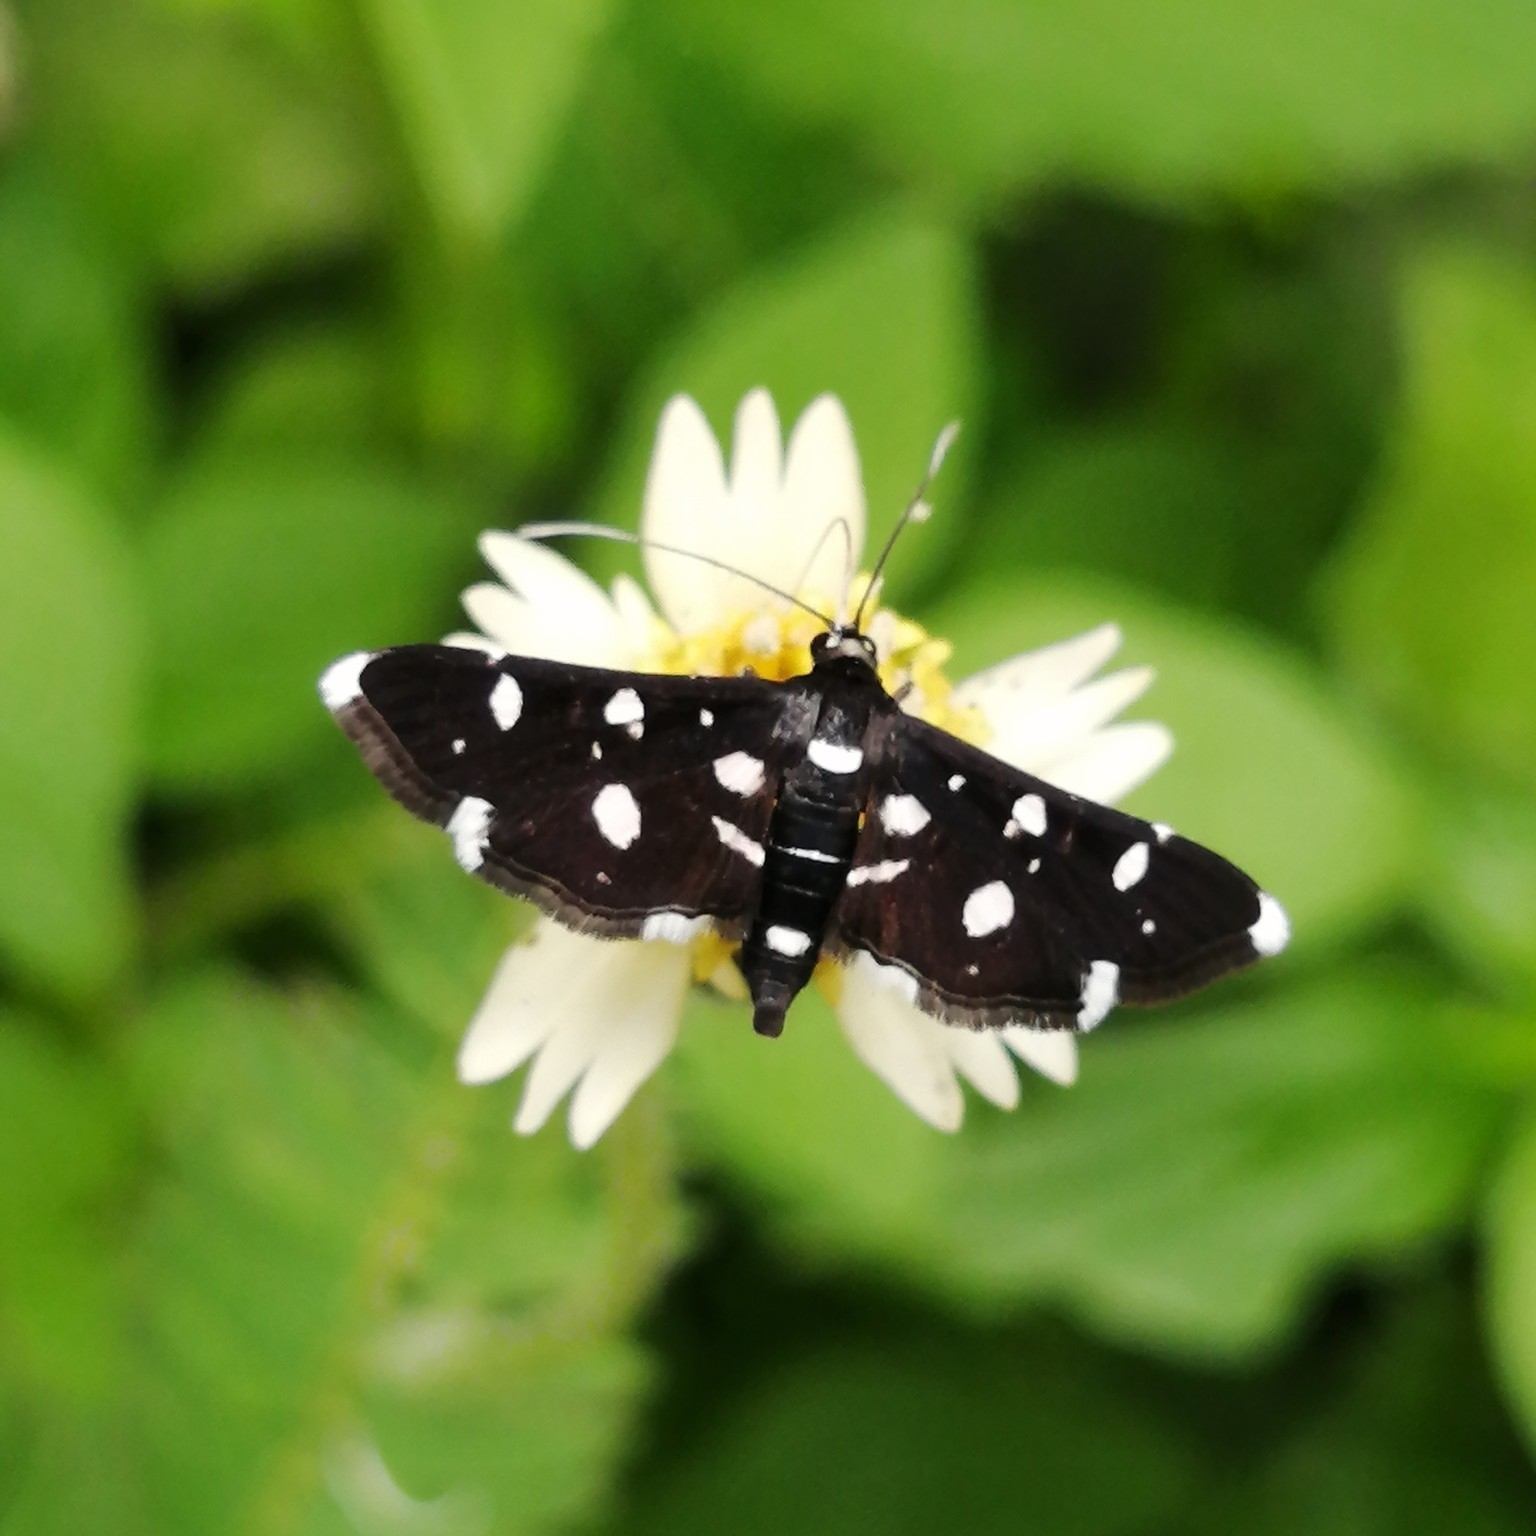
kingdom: Animalia
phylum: Arthropoda
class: Insecta
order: Lepidoptera
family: Crambidae
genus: Bocchoris
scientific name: Bocchoris inspersalis
